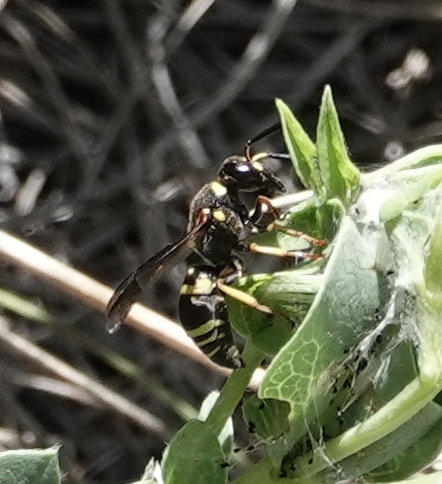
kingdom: Animalia
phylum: Arthropoda
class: Insecta
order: Hymenoptera
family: Eumenidae
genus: Euodynerus
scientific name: Euodynerus foraminatus
